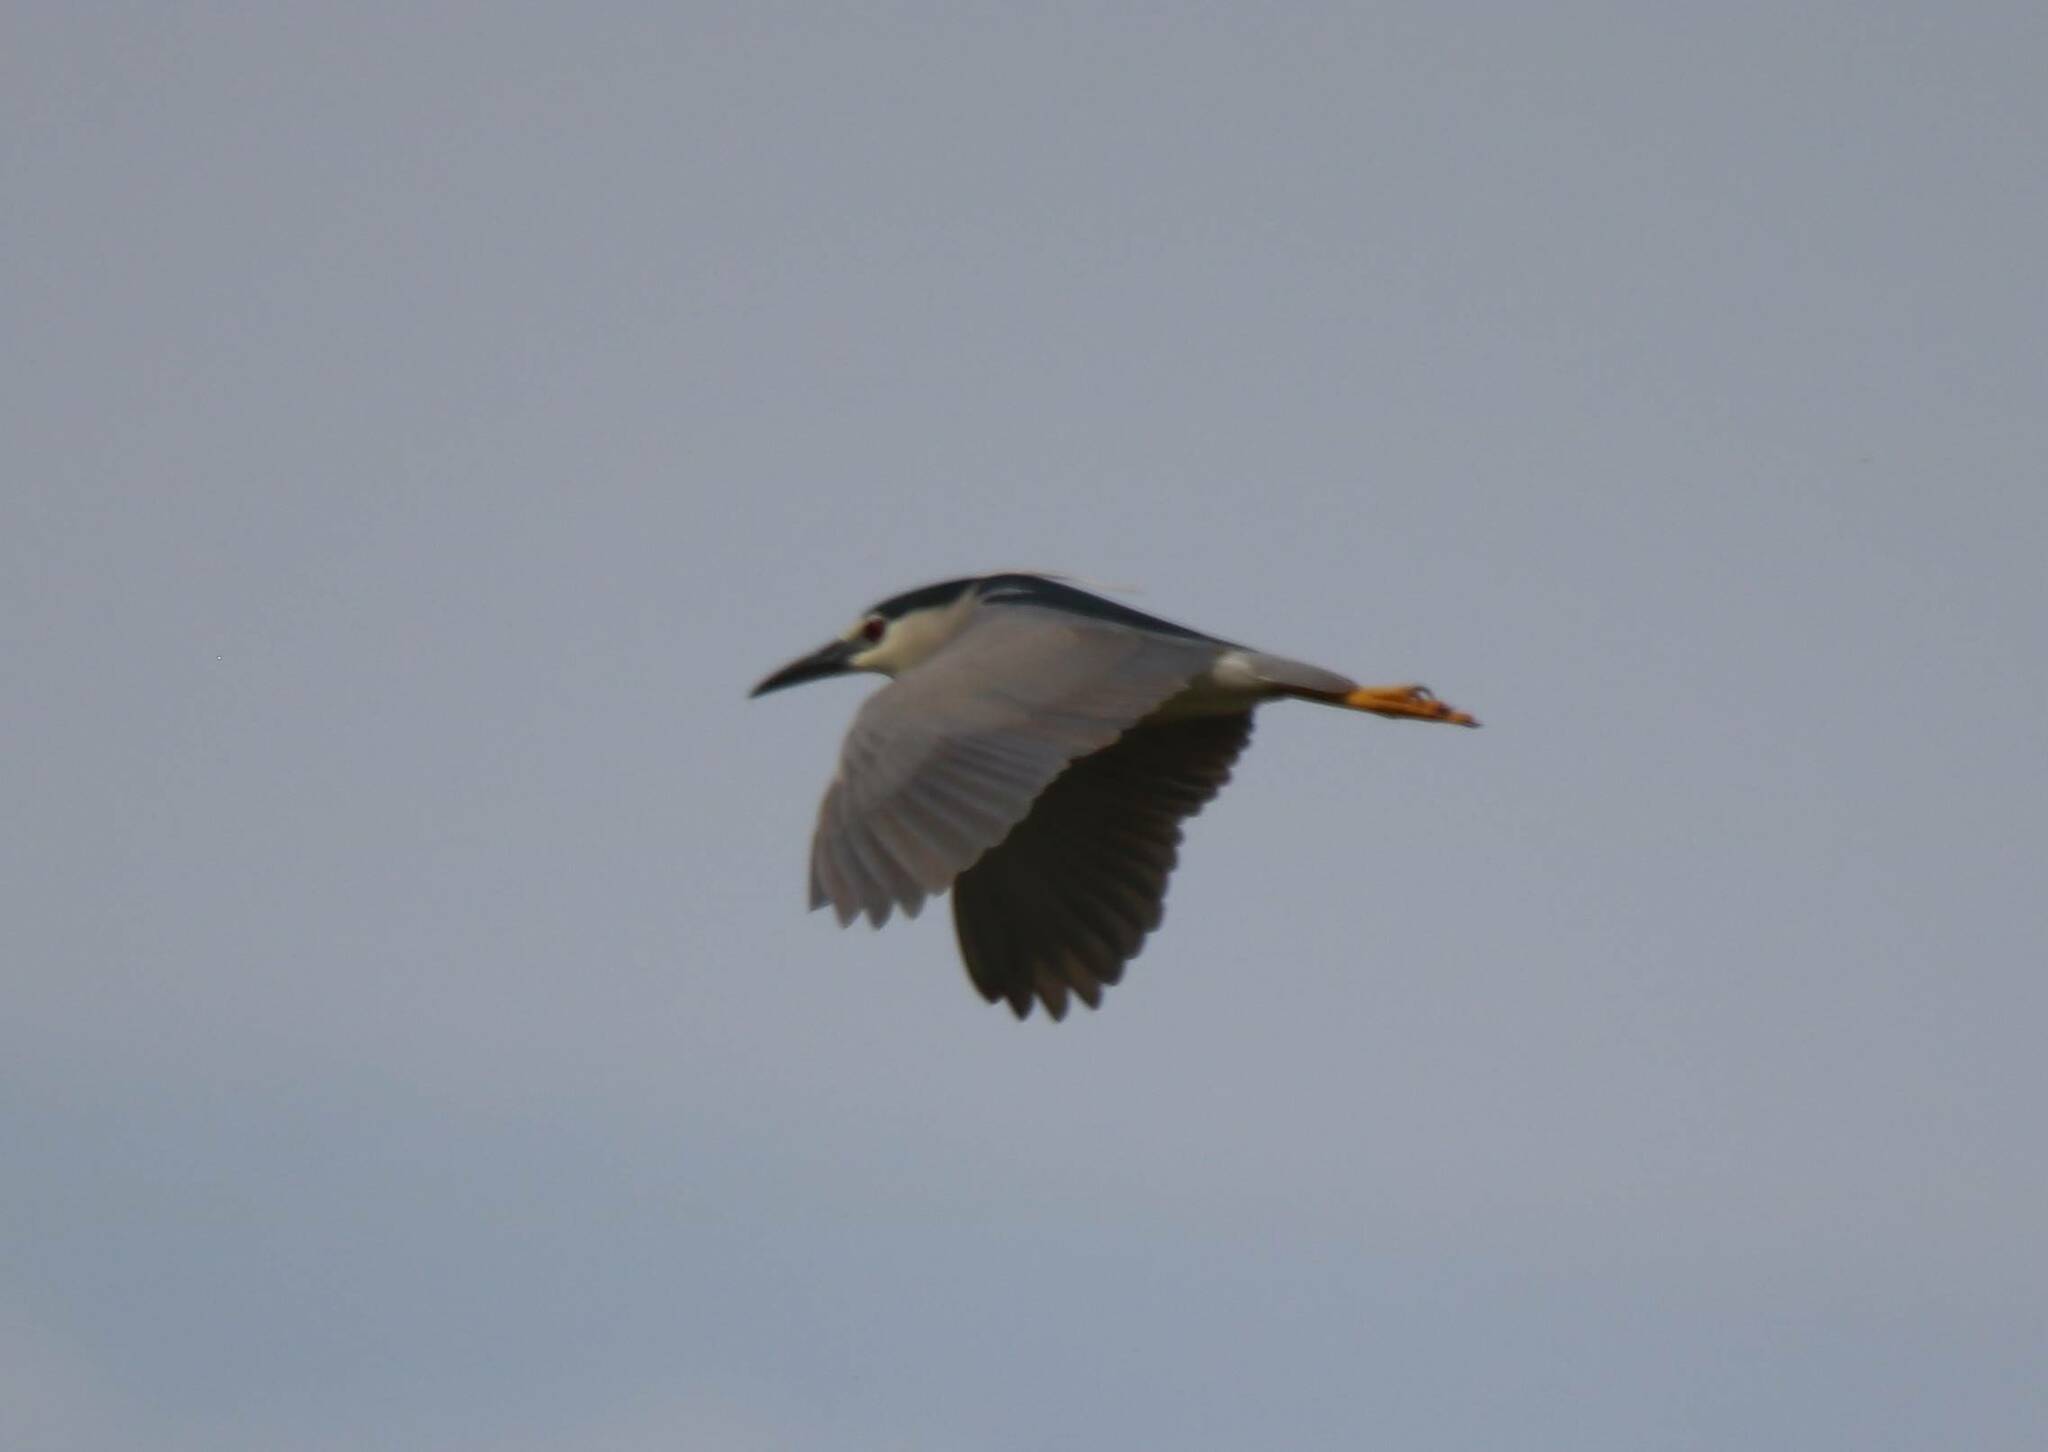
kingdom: Animalia
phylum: Chordata
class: Aves
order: Pelecaniformes
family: Ardeidae
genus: Nycticorax
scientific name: Nycticorax nycticorax
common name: Black-crowned night heron
